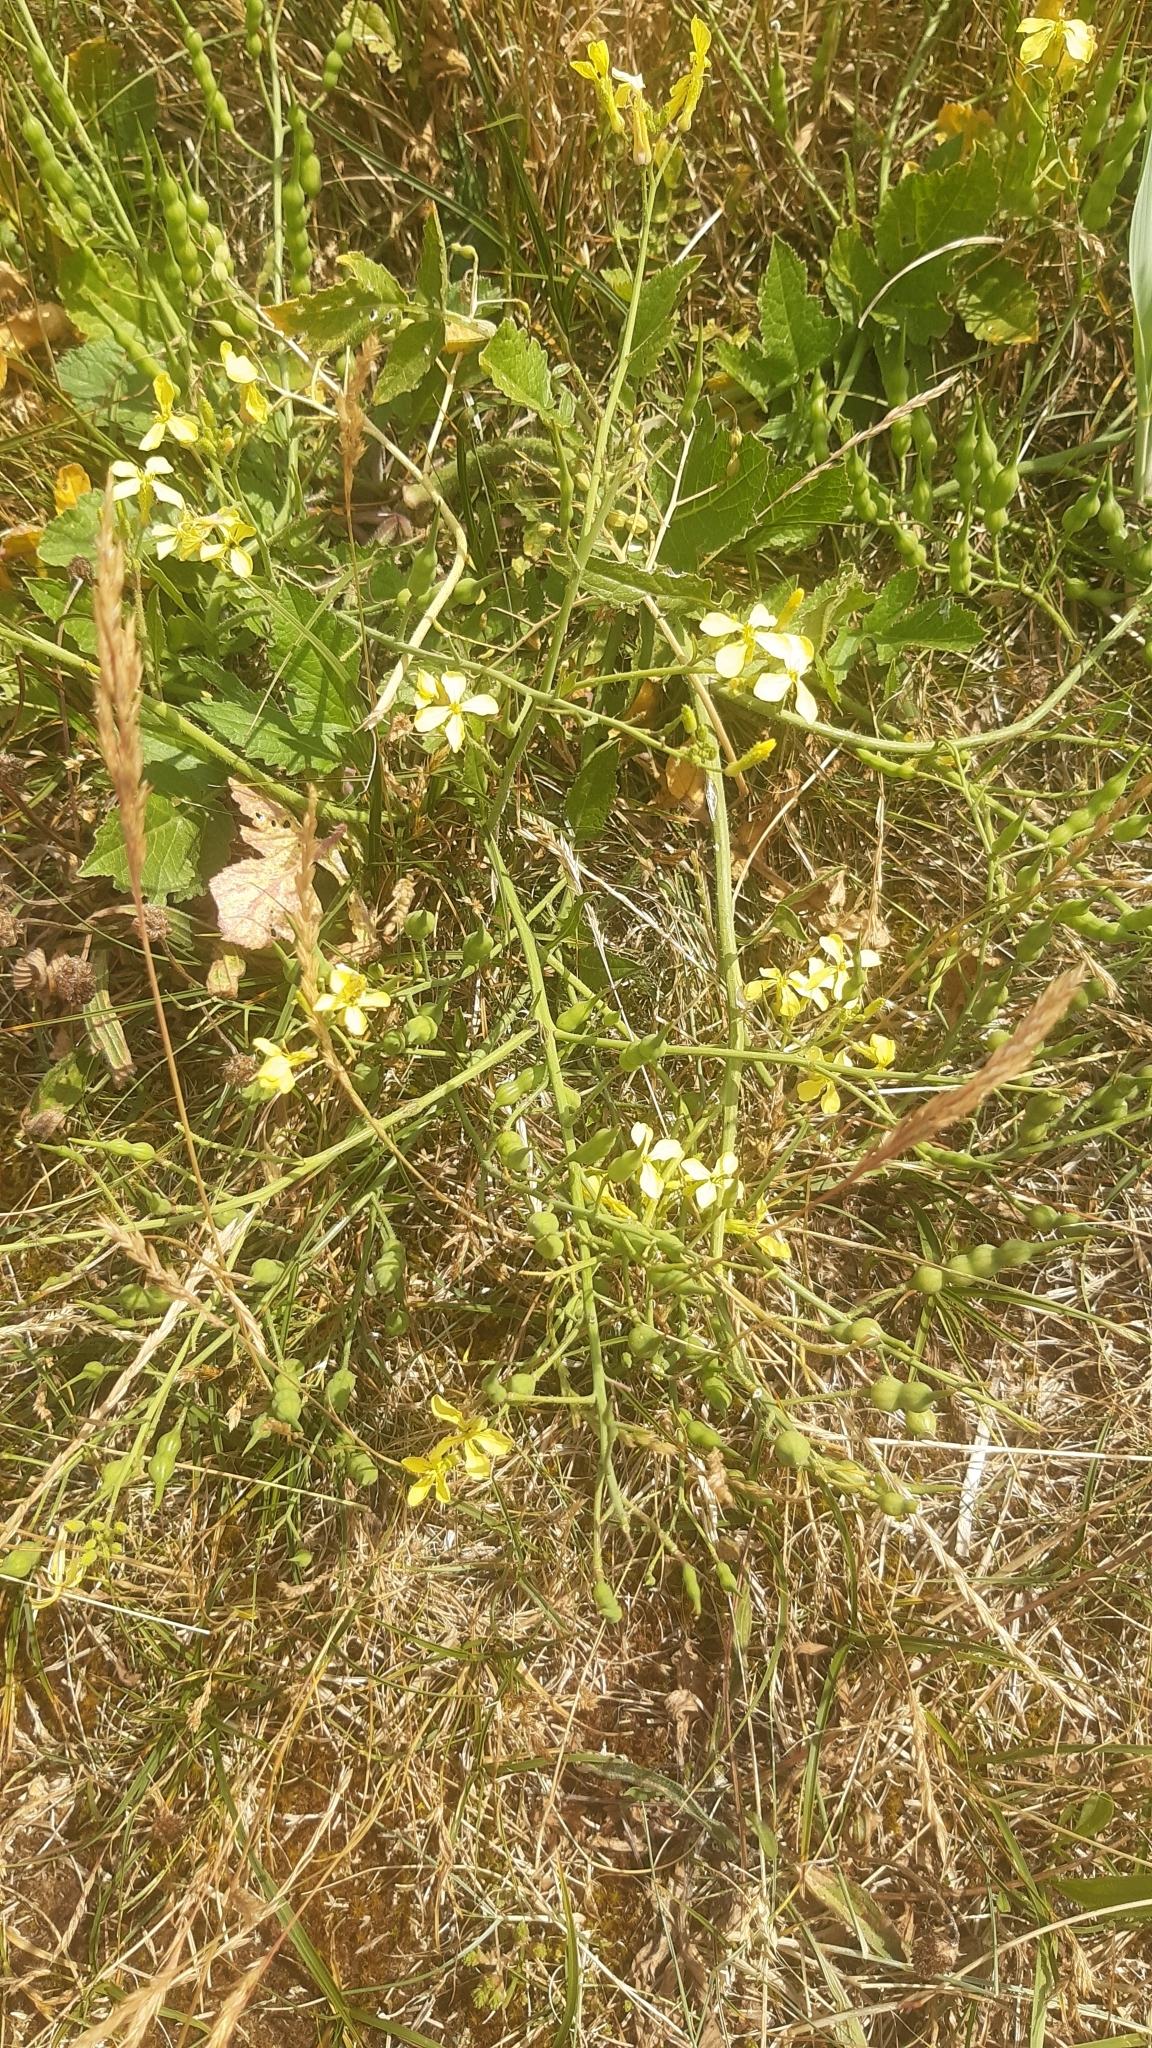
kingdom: Plantae
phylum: Tracheophyta
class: Magnoliopsida
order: Brassicales
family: Brassicaceae
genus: Raphanus
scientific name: Raphanus raphanistrum
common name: Wild radish
